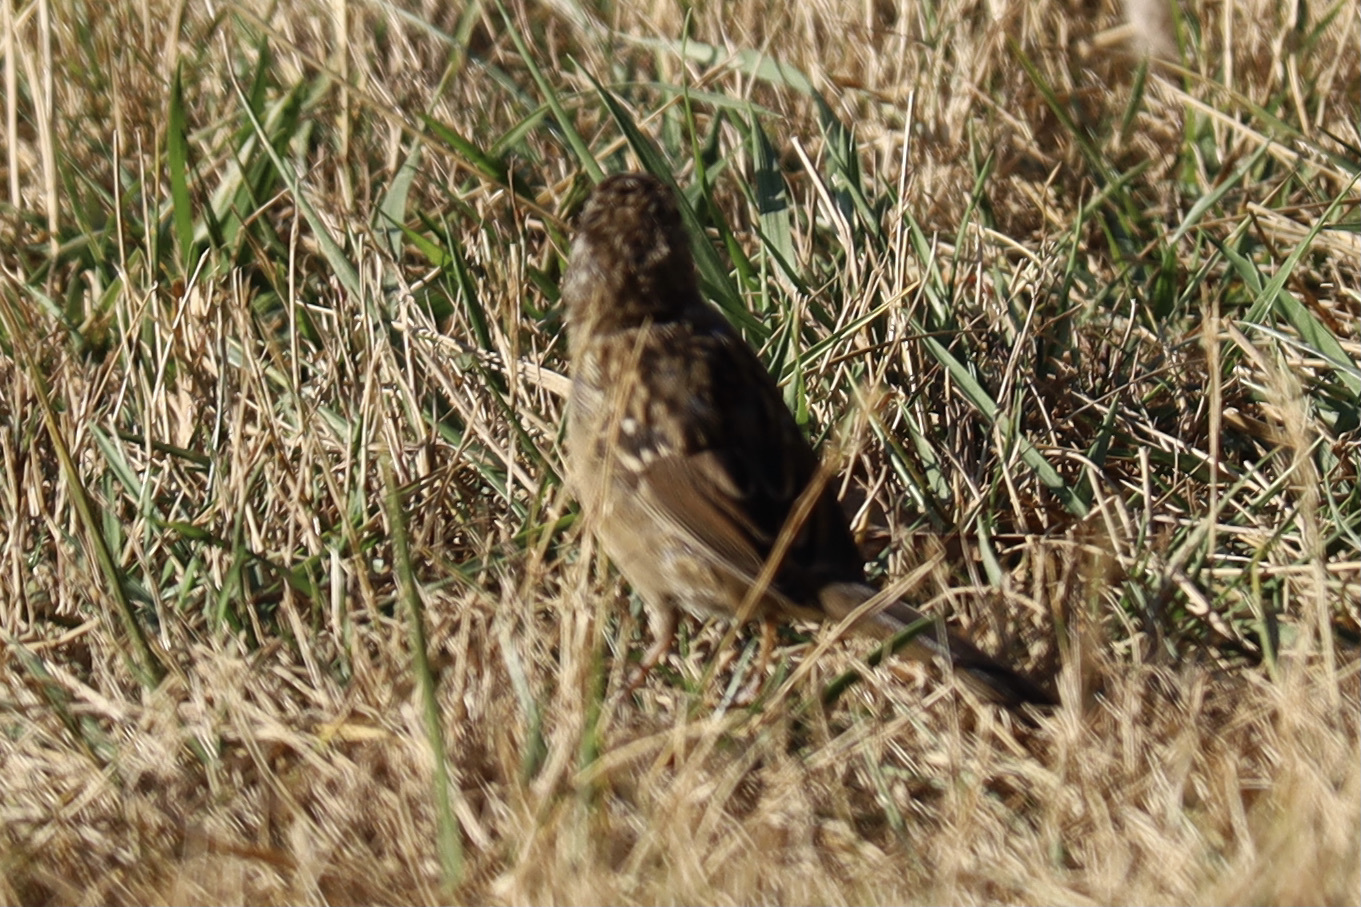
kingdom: Animalia
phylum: Chordata
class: Aves
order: Passeriformes
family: Passerellidae
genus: Zonotrichia
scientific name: Zonotrichia leucophrys
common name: White-crowned sparrow
